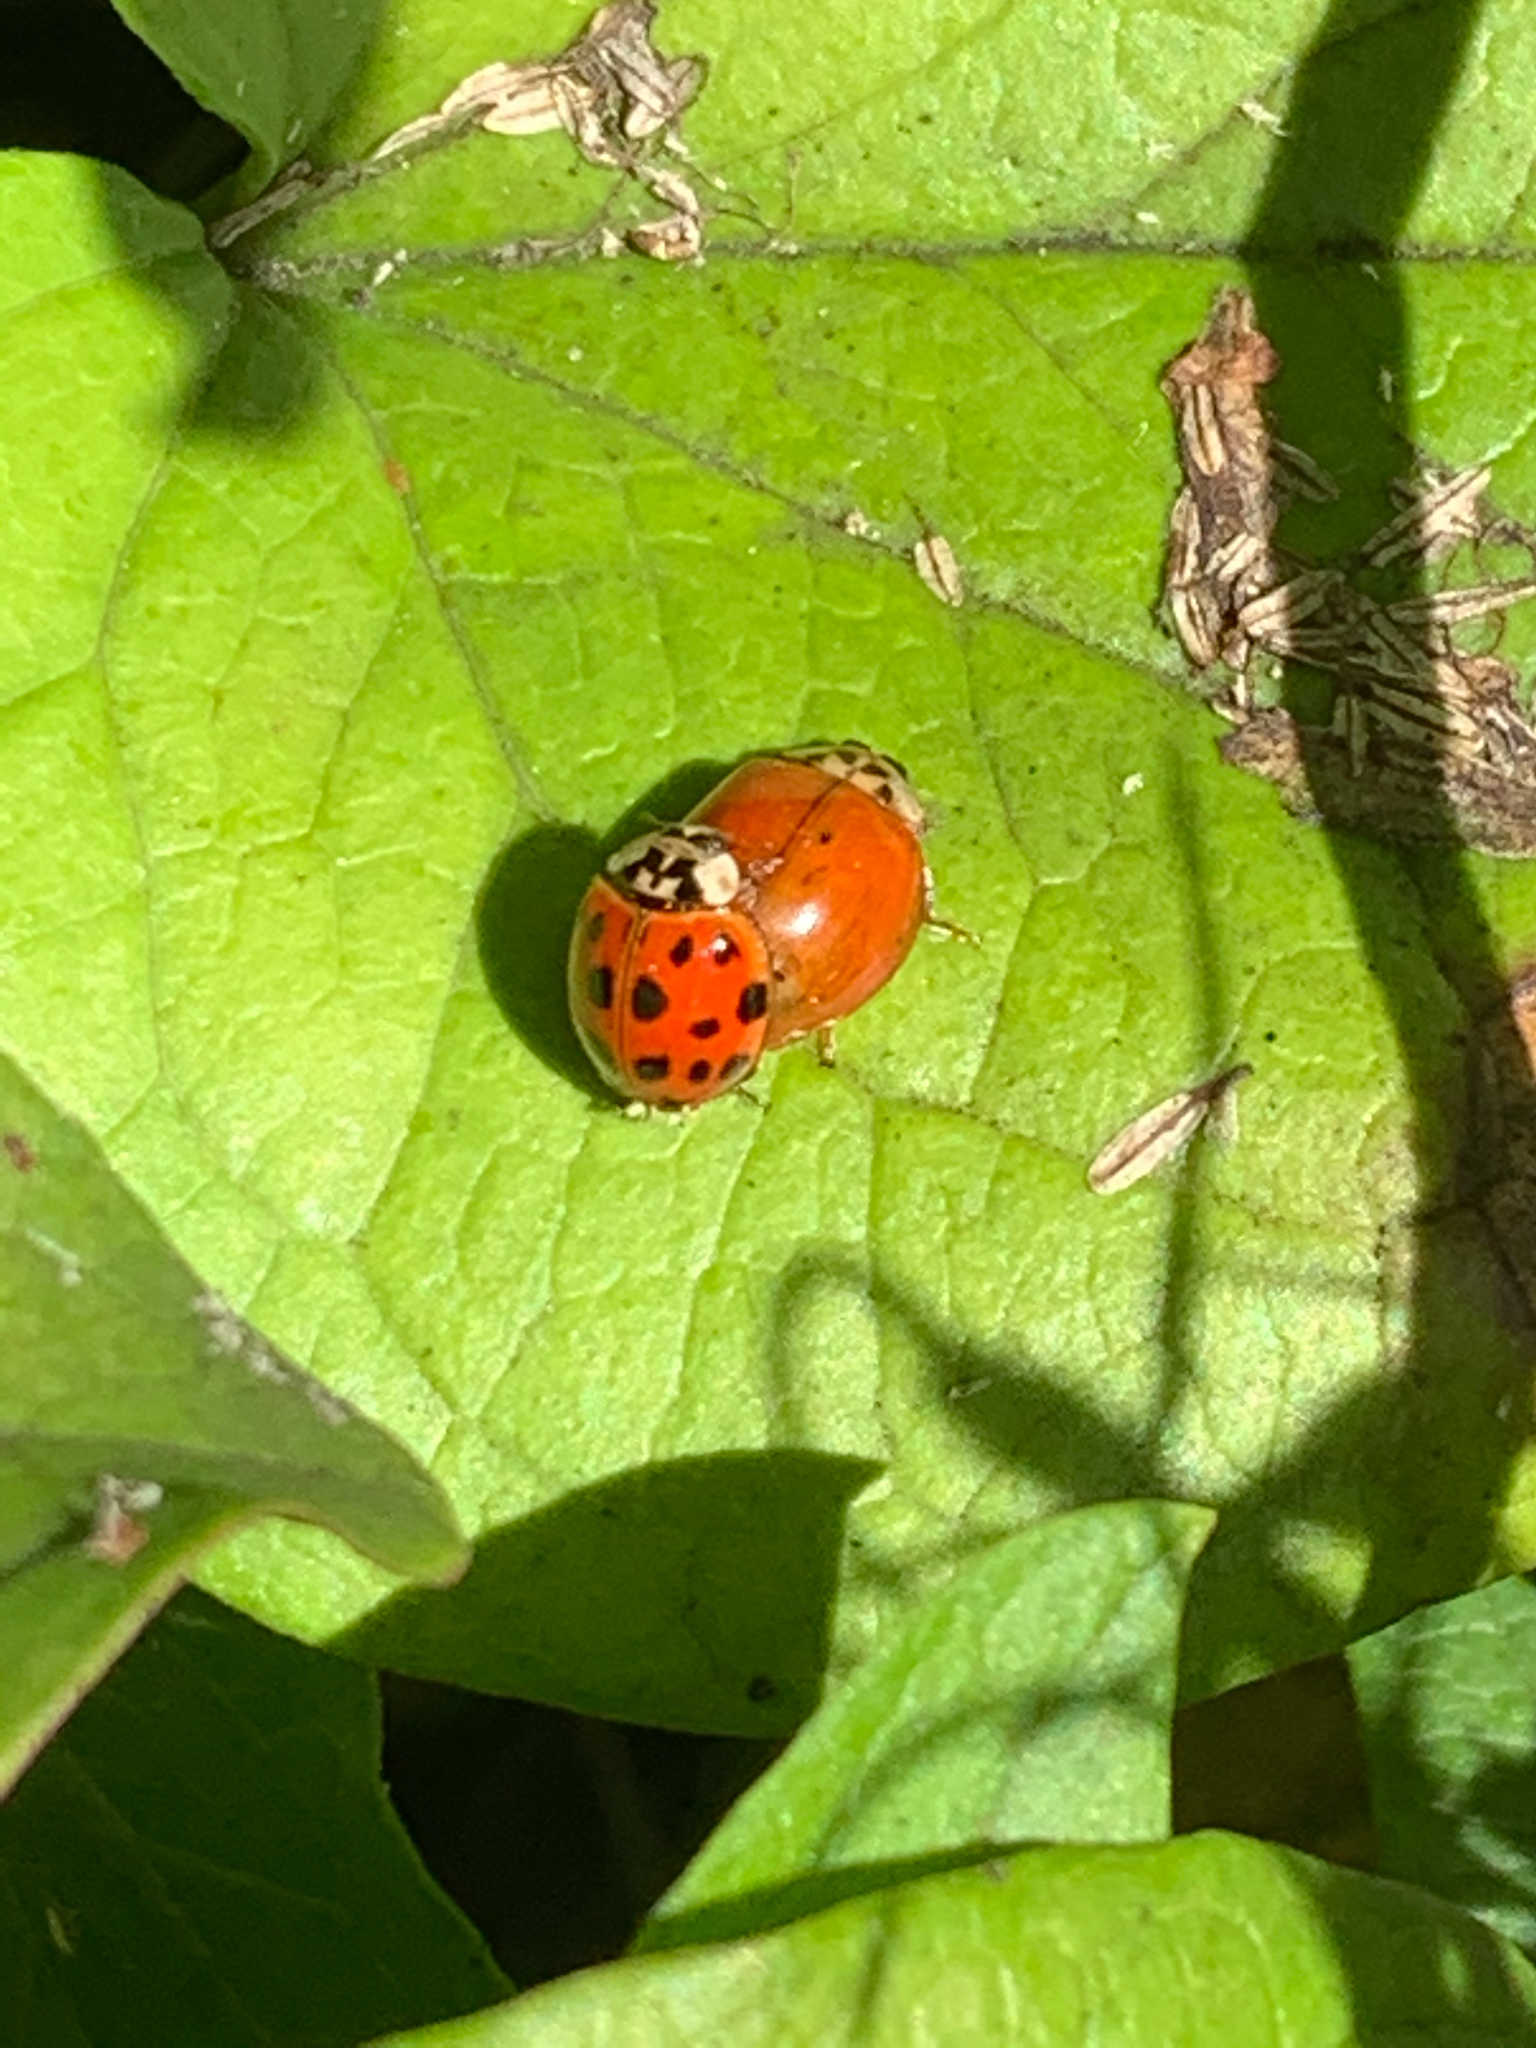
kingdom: Animalia
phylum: Arthropoda
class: Insecta
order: Coleoptera
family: Coccinellidae
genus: Harmonia
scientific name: Harmonia axyridis
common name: Harlequin ladybird
